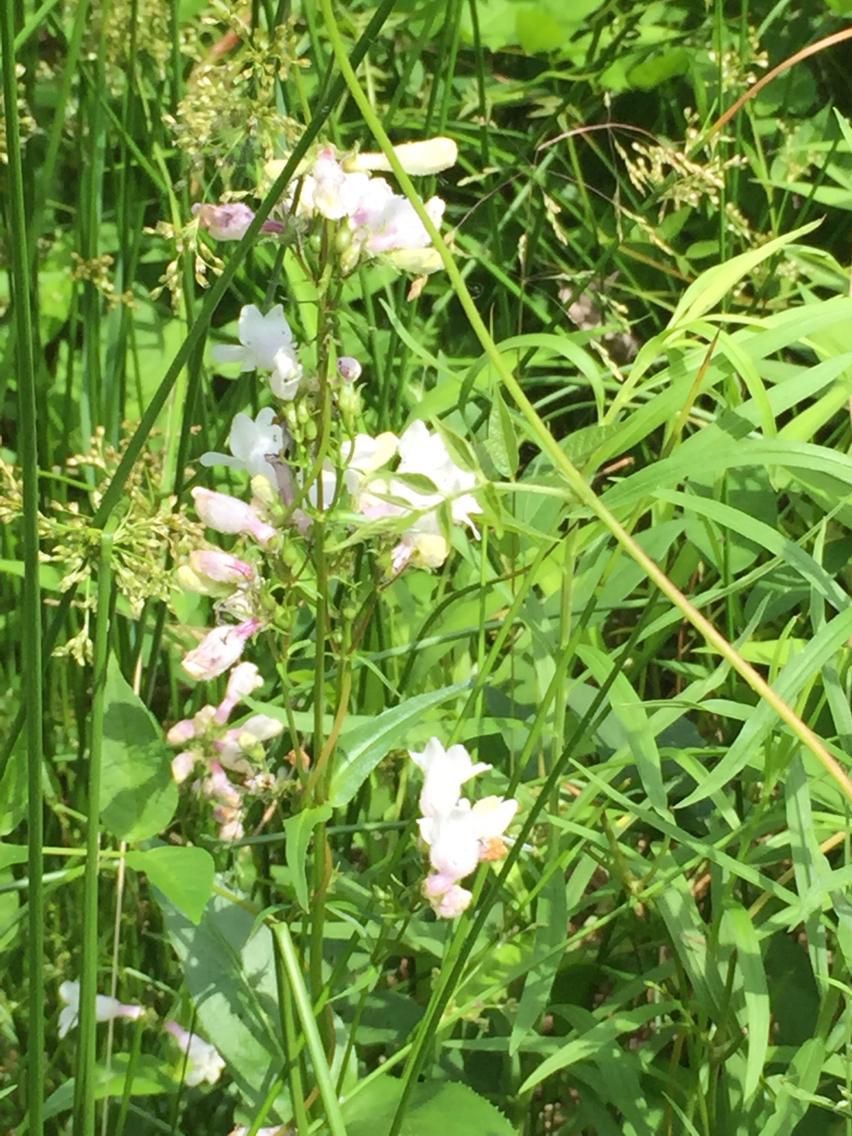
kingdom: Plantae
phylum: Tracheophyta
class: Magnoliopsida
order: Lamiales
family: Plantaginaceae
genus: Penstemon
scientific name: Penstemon digitalis
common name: Foxglove beardtongue
